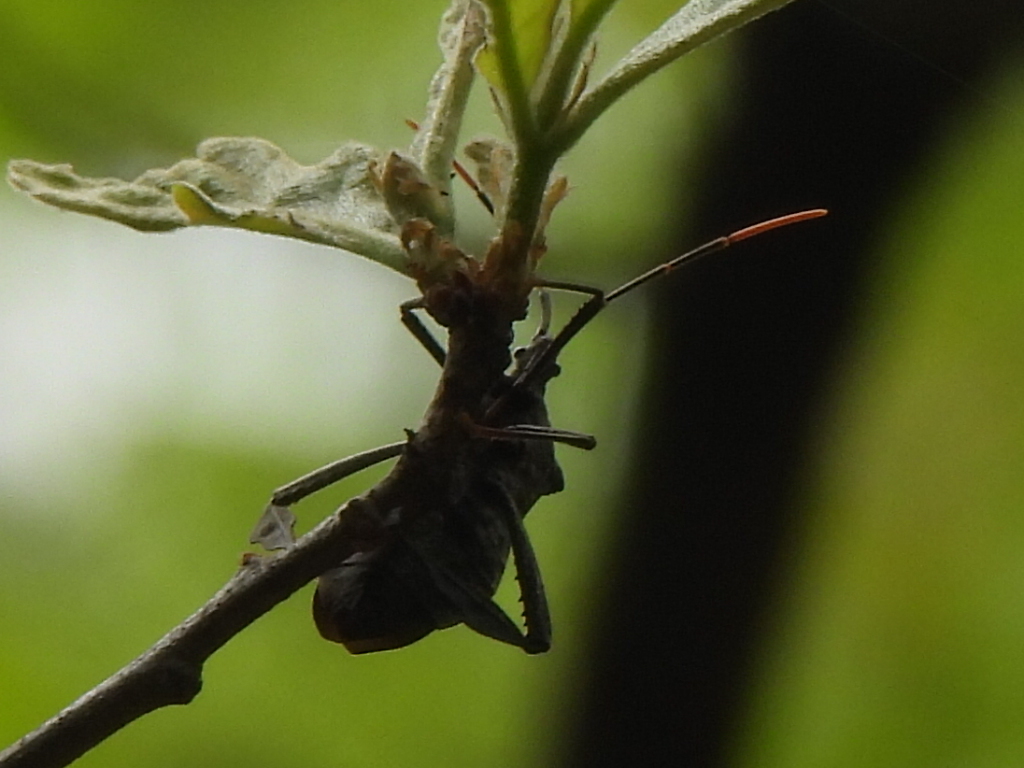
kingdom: Animalia
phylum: Arthropoda
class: Insecta
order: Hemiptera
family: Coreidae
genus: Acanthocephala
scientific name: Acanthocephala terminalis
